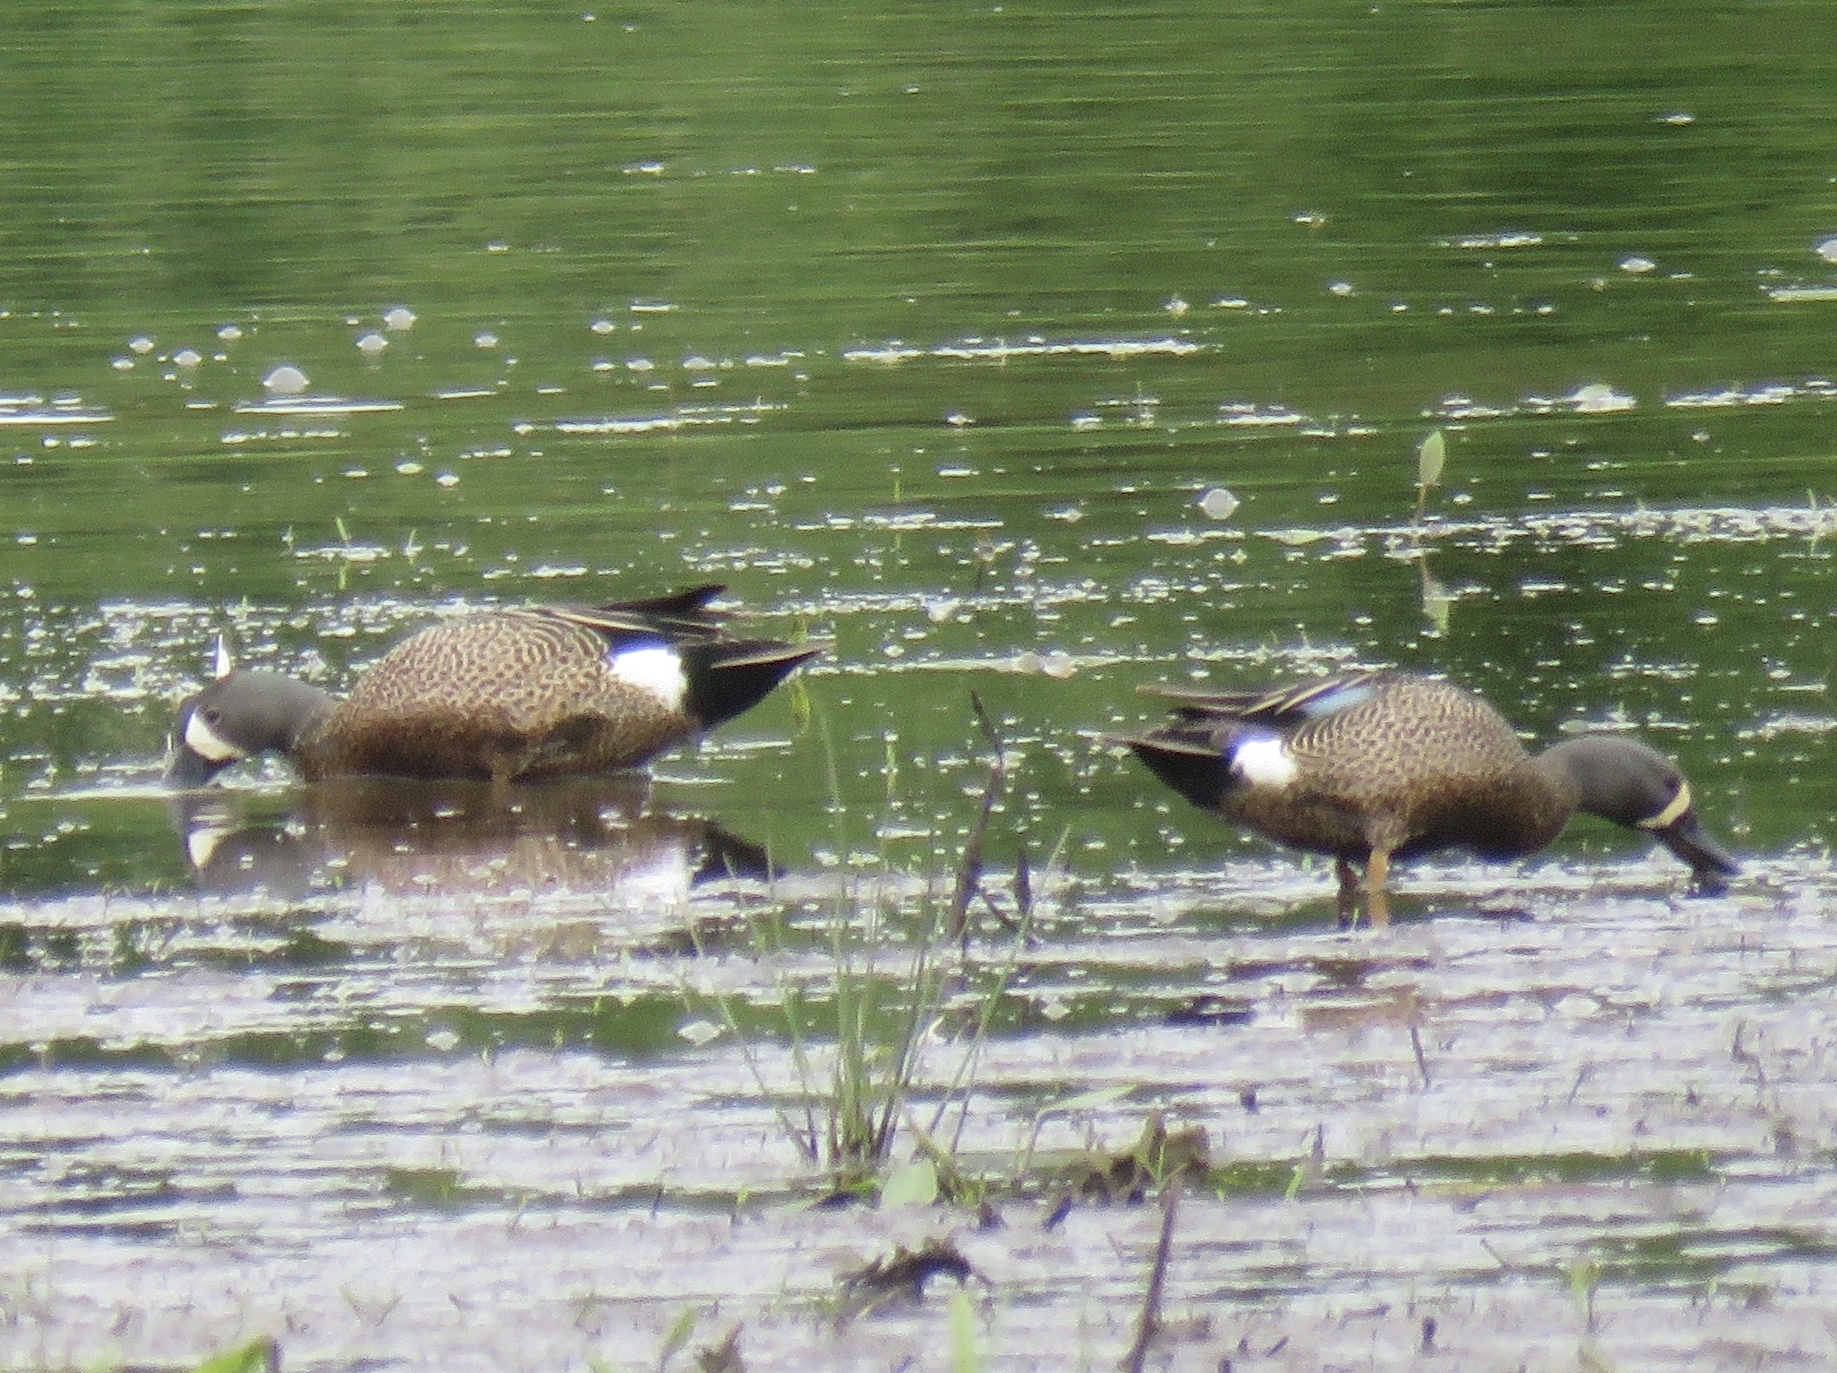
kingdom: Animalia
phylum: Chordata
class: Aves
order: Anseriformes
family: Anatidae
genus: Spatula
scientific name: Spatula discors
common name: Blue-winged teal
